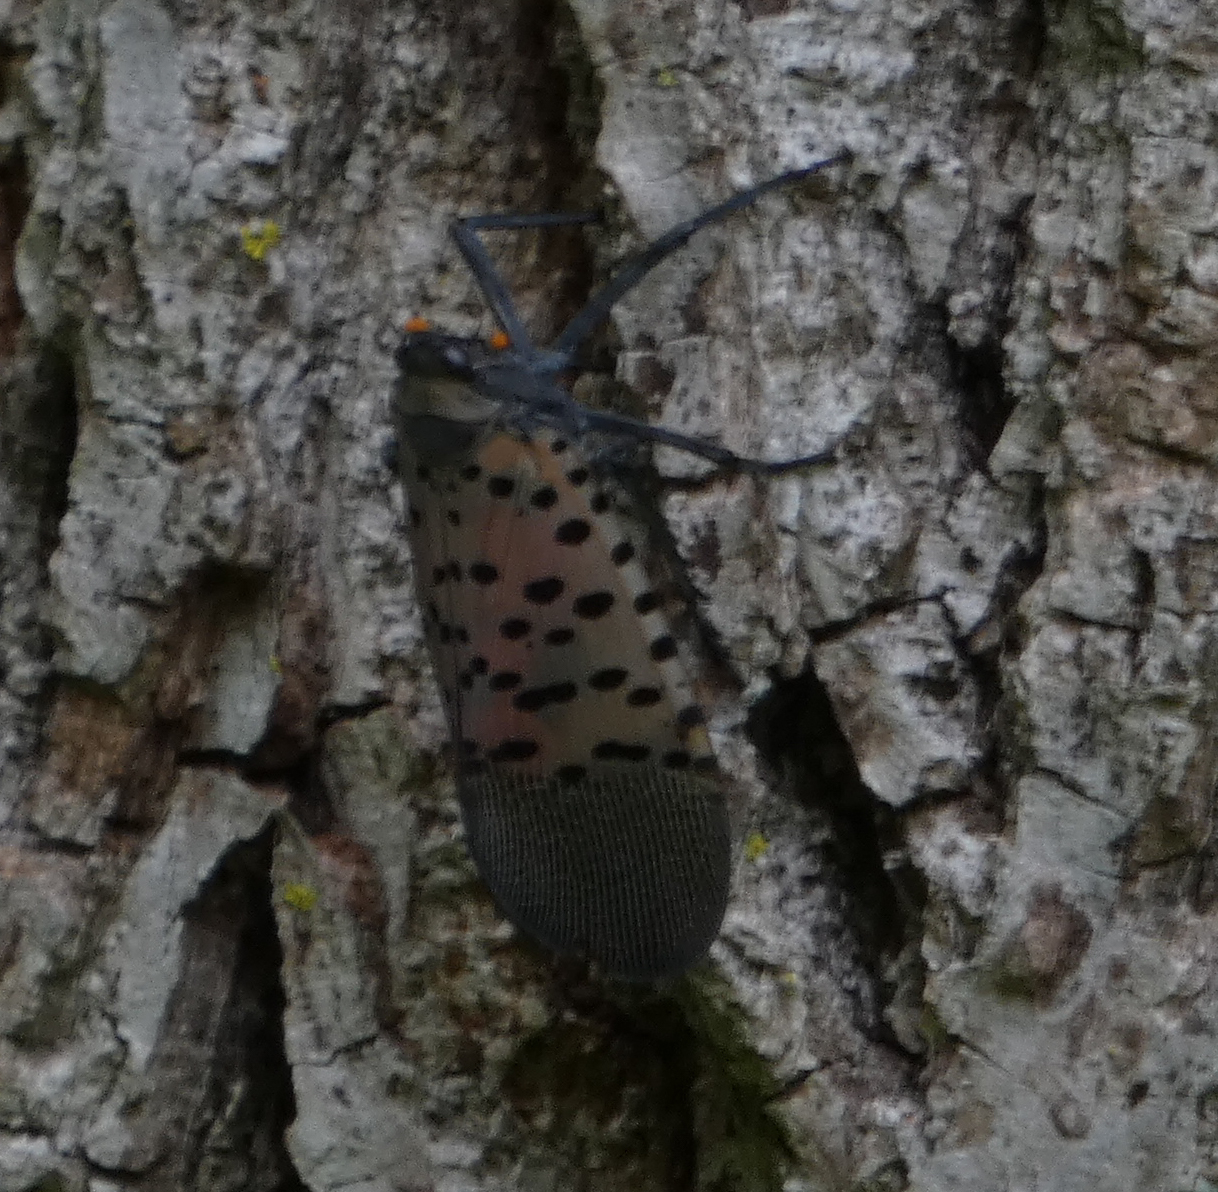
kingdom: Animalia
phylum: Arthropoda
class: Insecta
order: Hemiptera
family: Fulgoridae
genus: Lycorma
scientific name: Lycorma delicatula
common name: Spotted lanternfly
